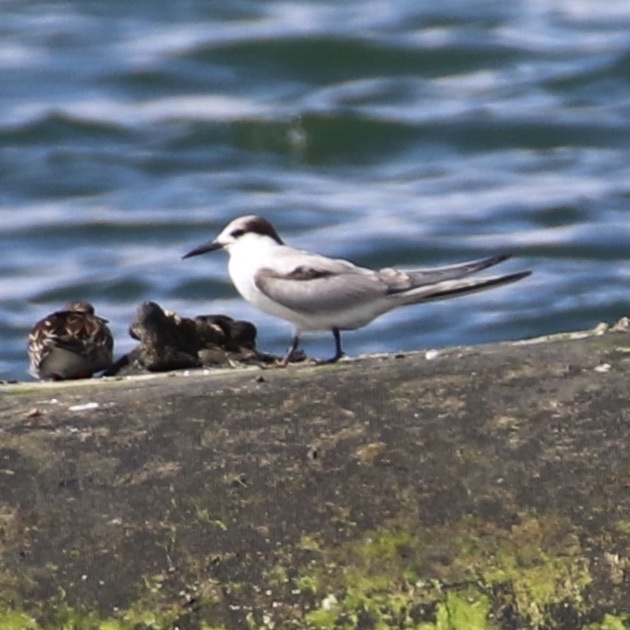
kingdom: Animalia
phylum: Chordata
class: Aves
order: Charadriiformes
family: Laridae
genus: Sterna
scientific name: Sterna hirundo
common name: Common tern
